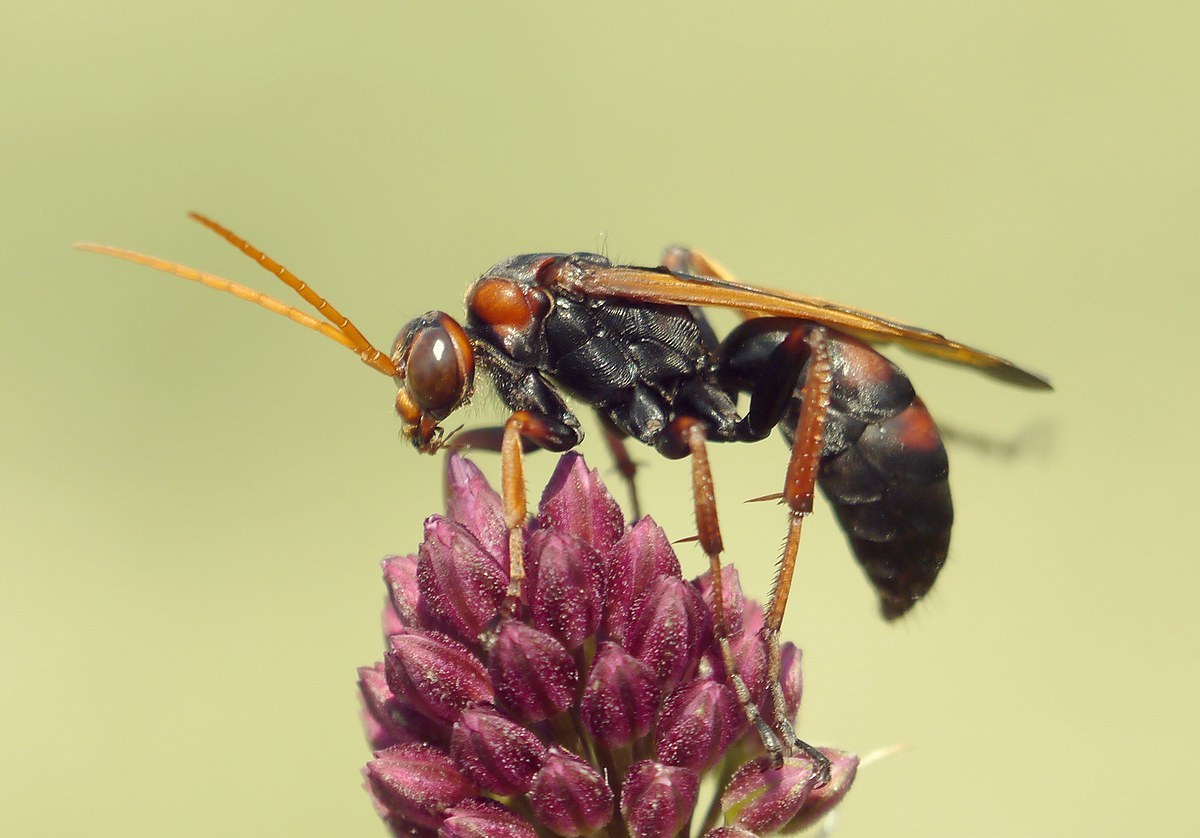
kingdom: Animalia
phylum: Arthropoda
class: Insecta
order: Hymenoptera
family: Pompilidae
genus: Cryptocheilus
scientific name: Cryptocheilus rubellus
